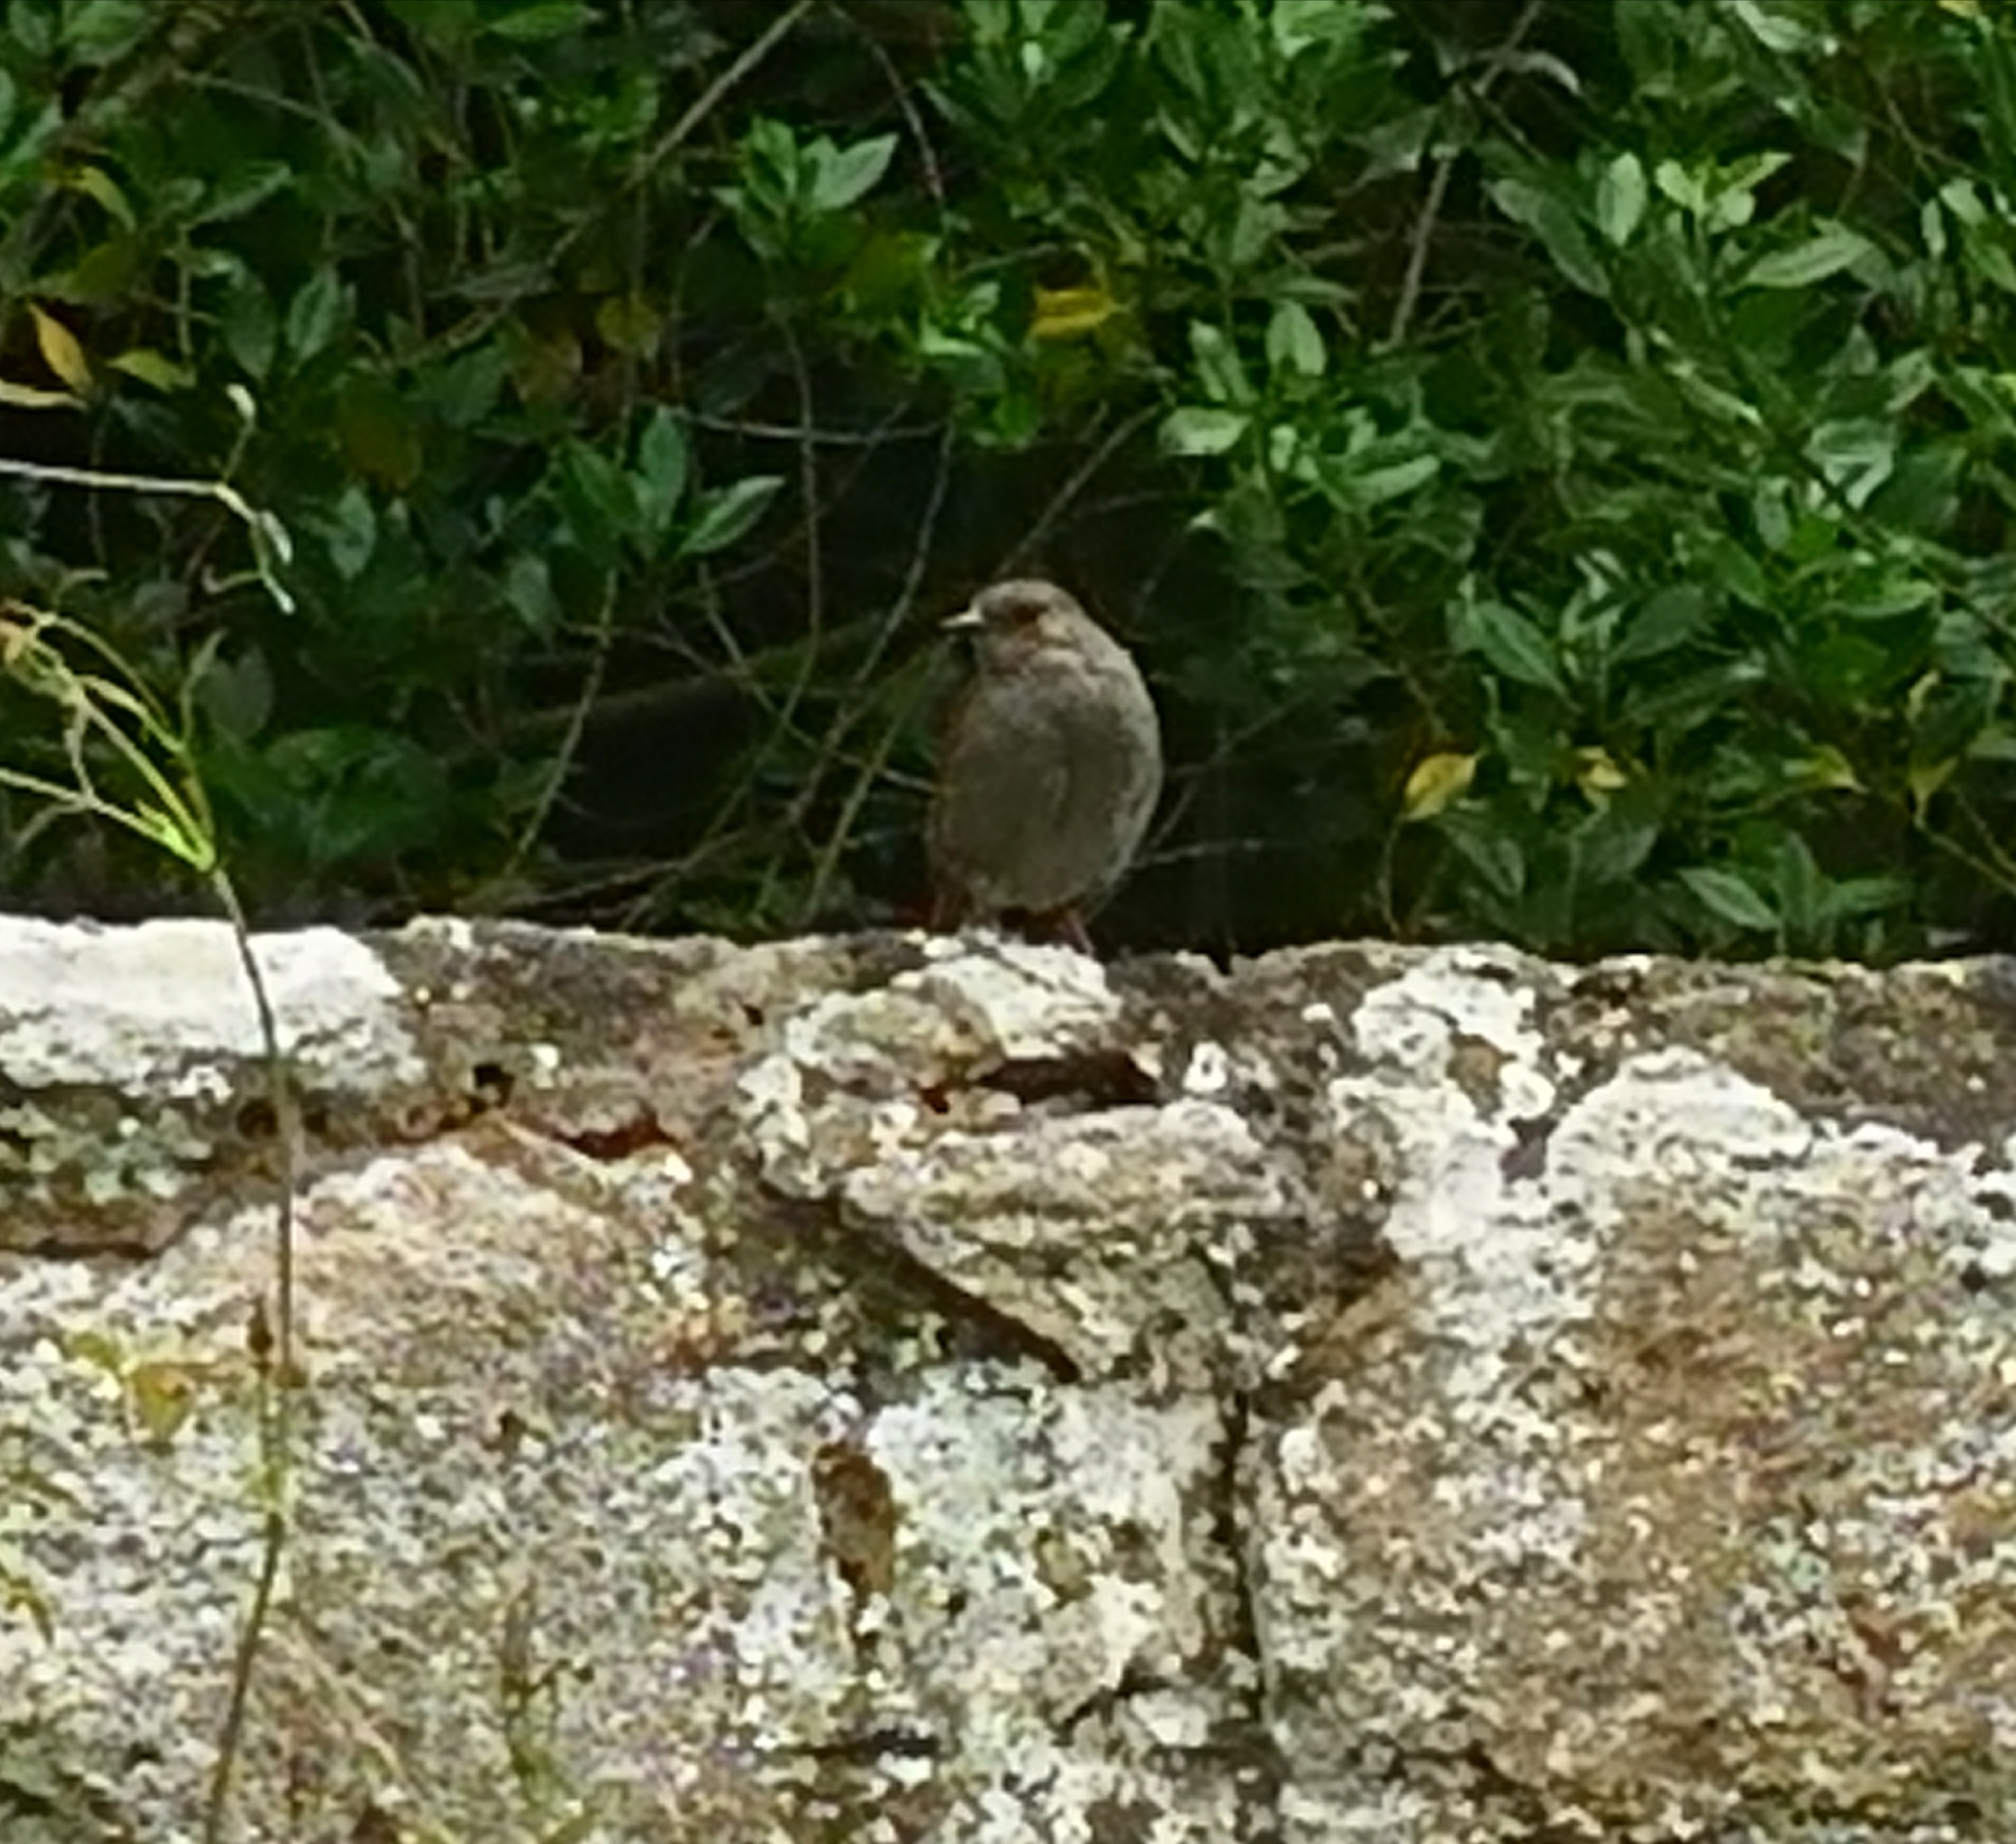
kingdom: Animalia
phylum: Chordata
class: Aves
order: Passeriformes
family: Prunellidae
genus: Prunella
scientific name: Prunella modularis
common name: Dunnock
